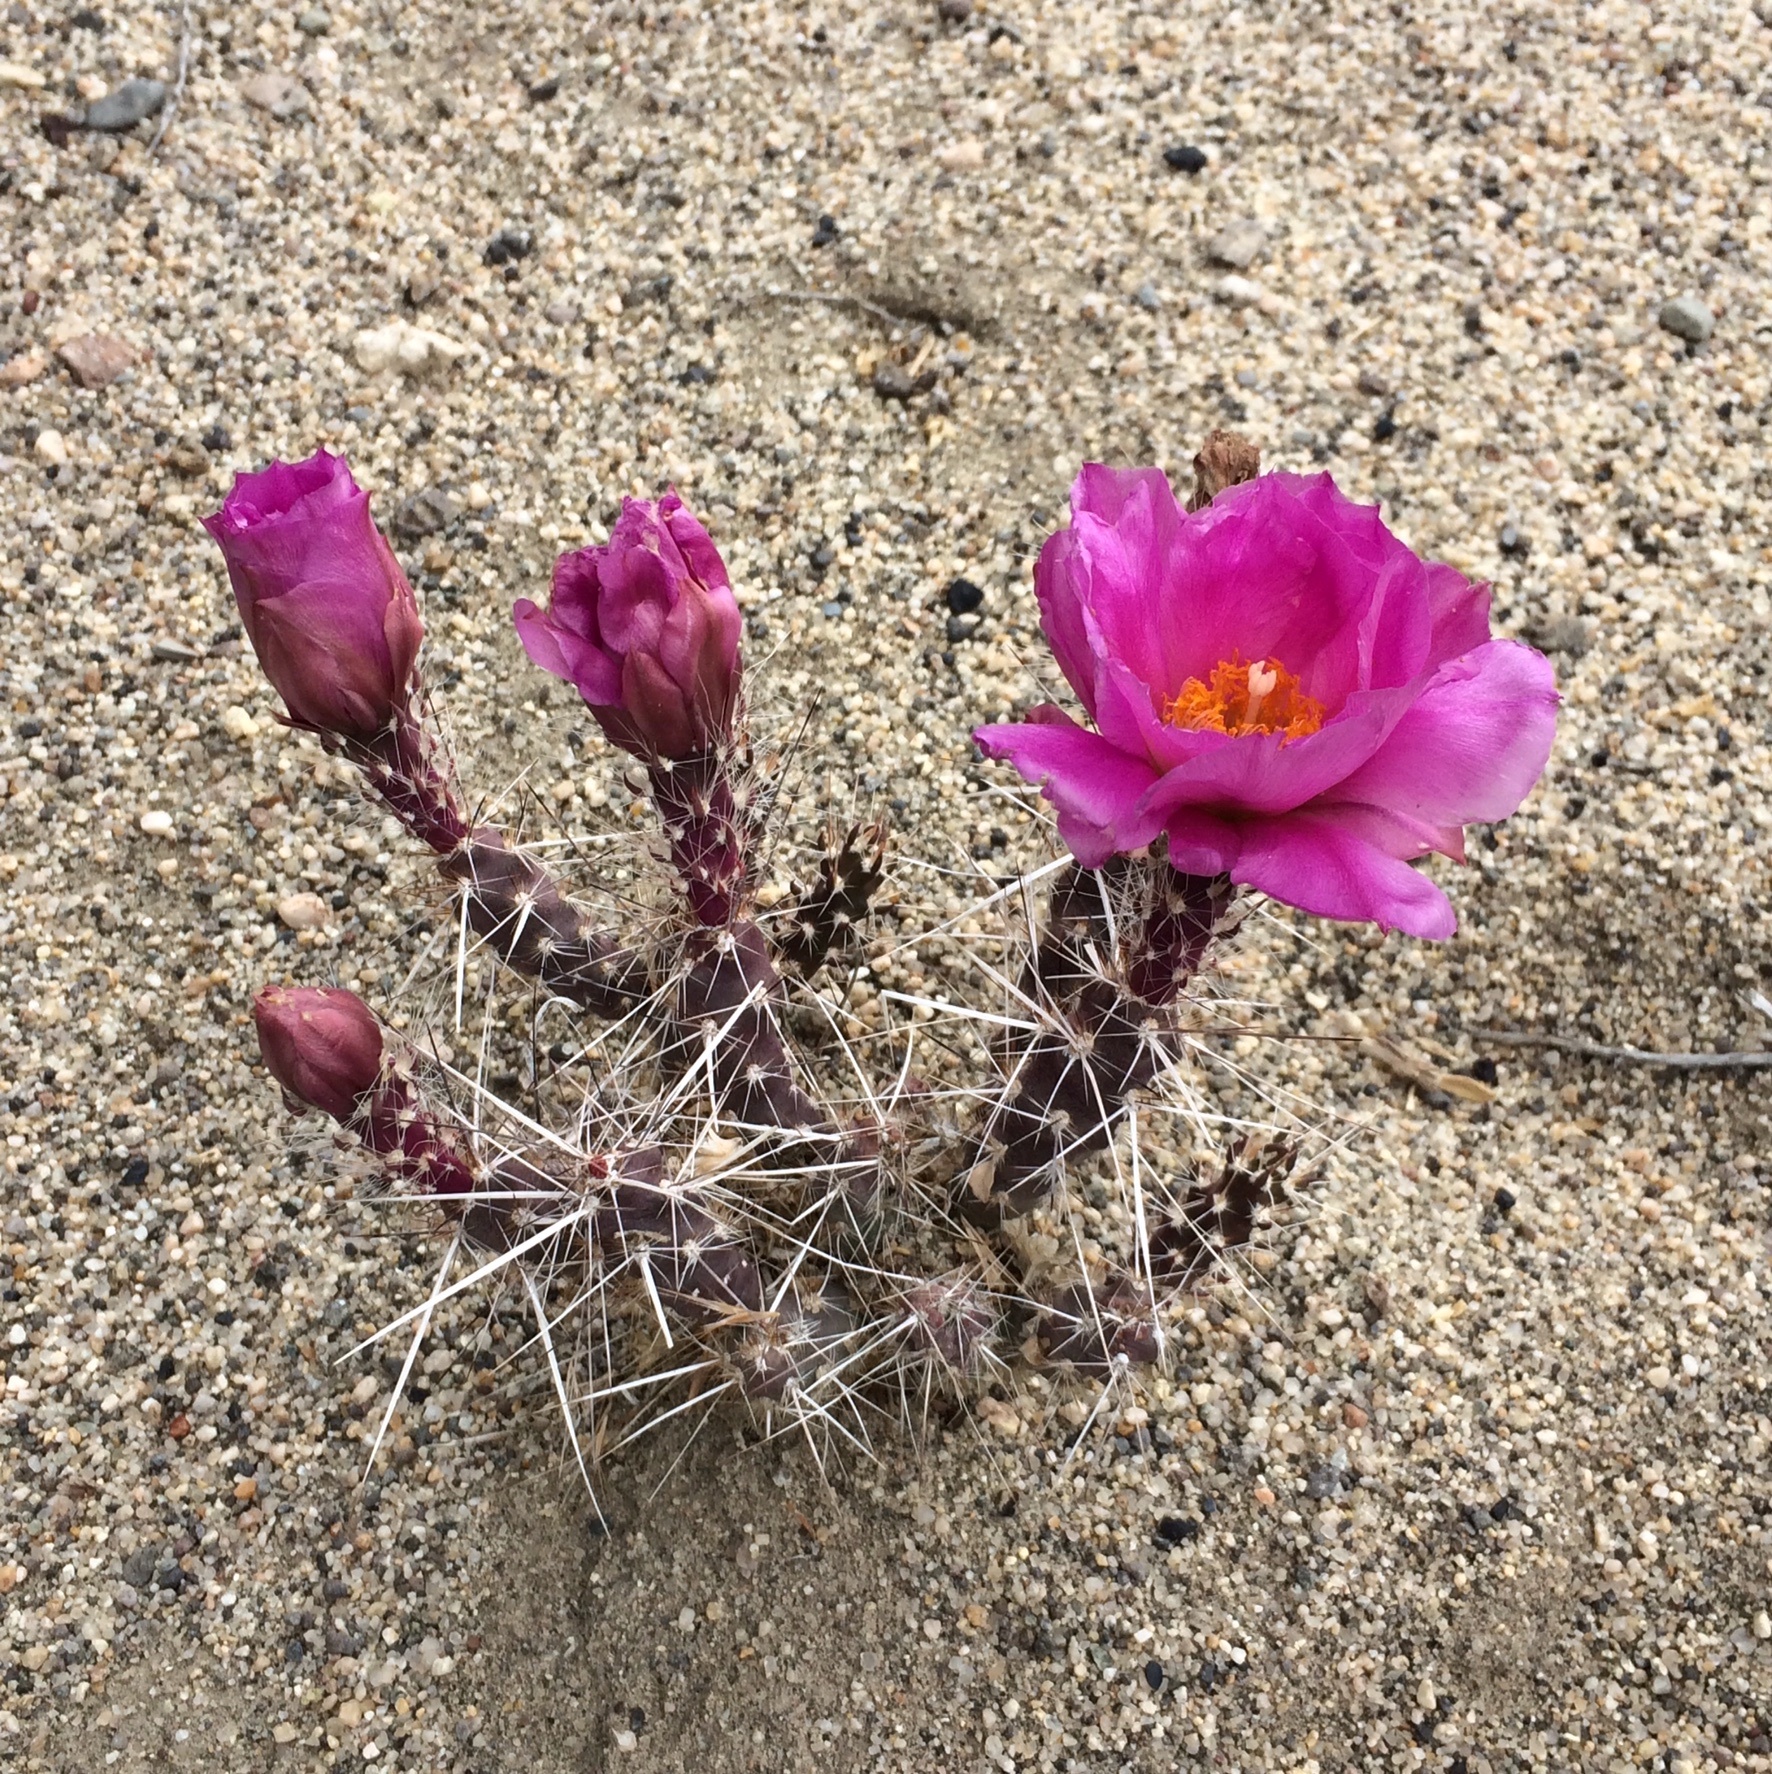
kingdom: Plantae
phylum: Tracheophyta
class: Magnoliopsida
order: Caryophyllales
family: Cactaceae
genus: Micropuntia
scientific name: Micropuntia pulchella
